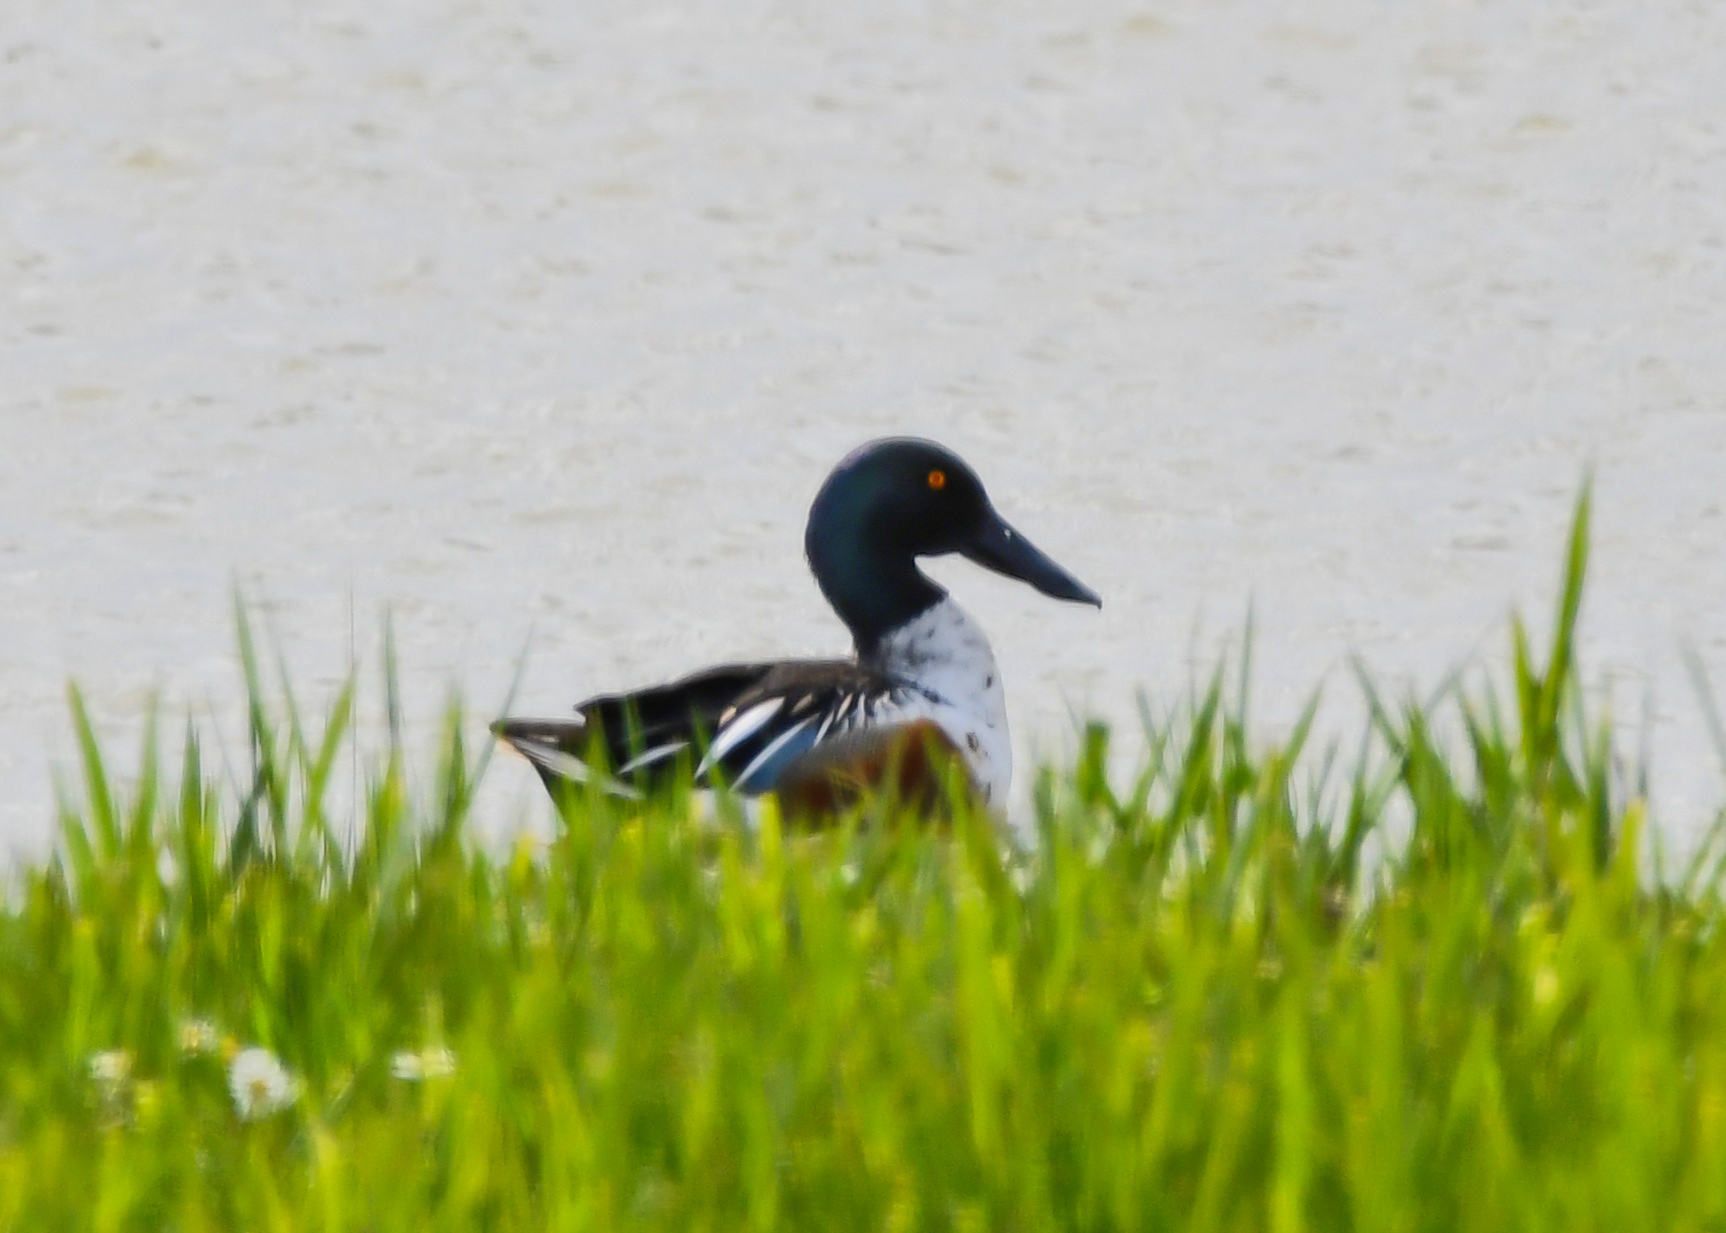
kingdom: Animalia
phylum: Chordata
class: Aves
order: Anseriformes
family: Anatidae
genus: Spatula
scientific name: Spatula clypeata
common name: Northern shoveler
